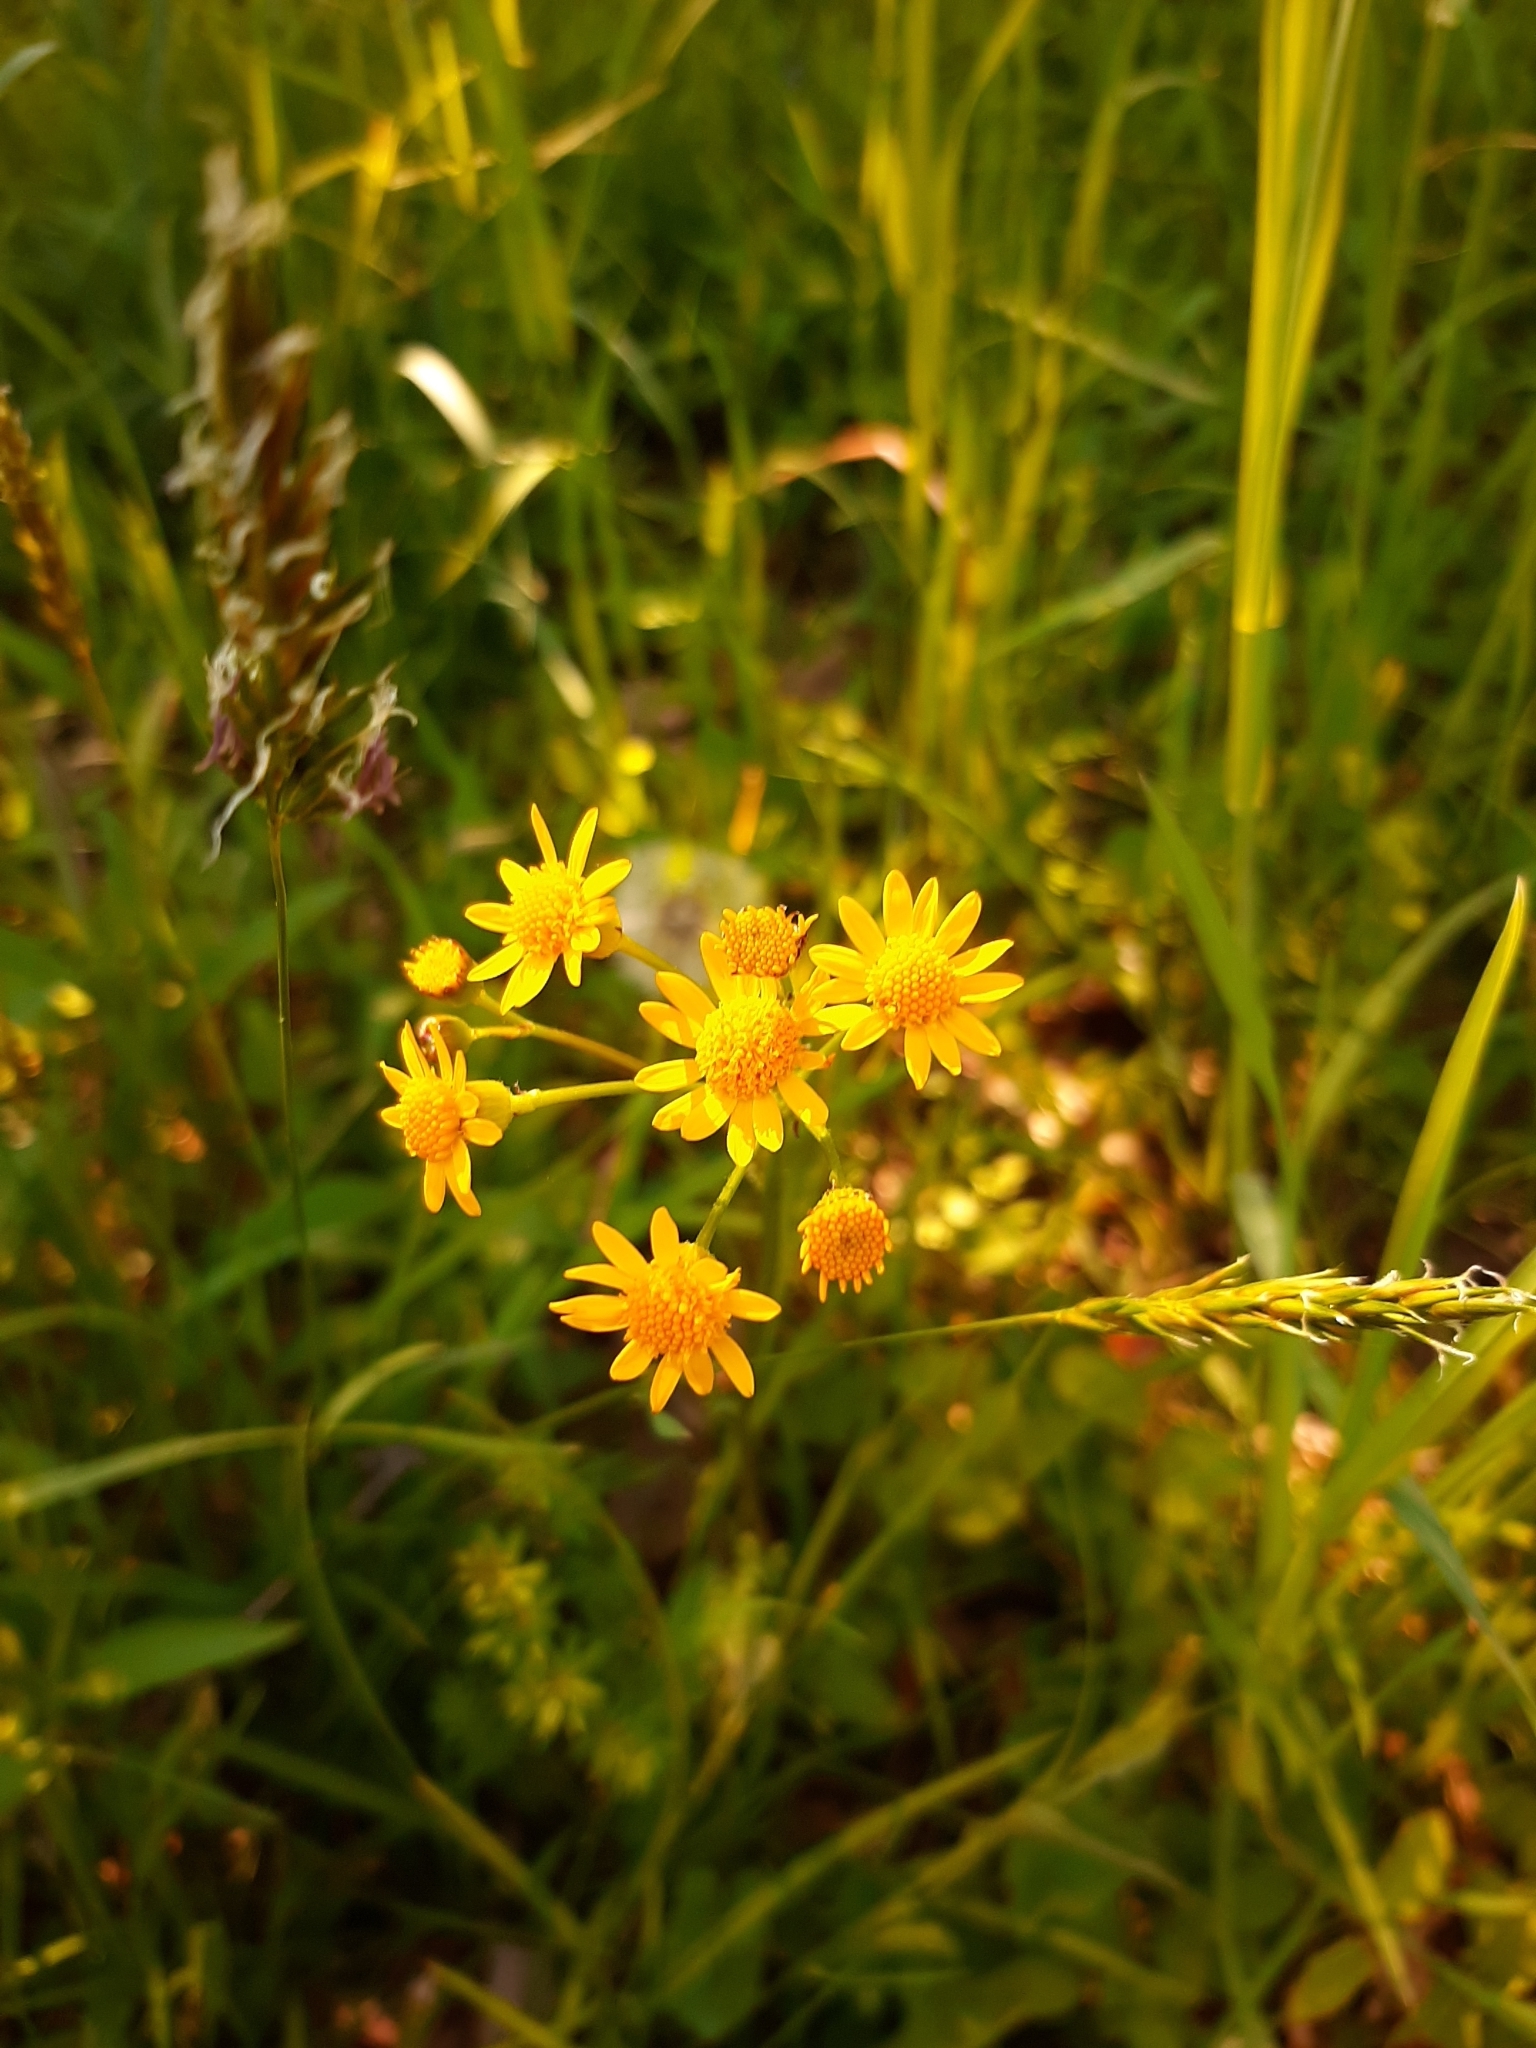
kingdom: Plantae
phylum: Tracheophyta
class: Magnoliopsida
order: Asterales
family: Asteraceae
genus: Packera
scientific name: Packera aurea
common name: Golden groundsel
